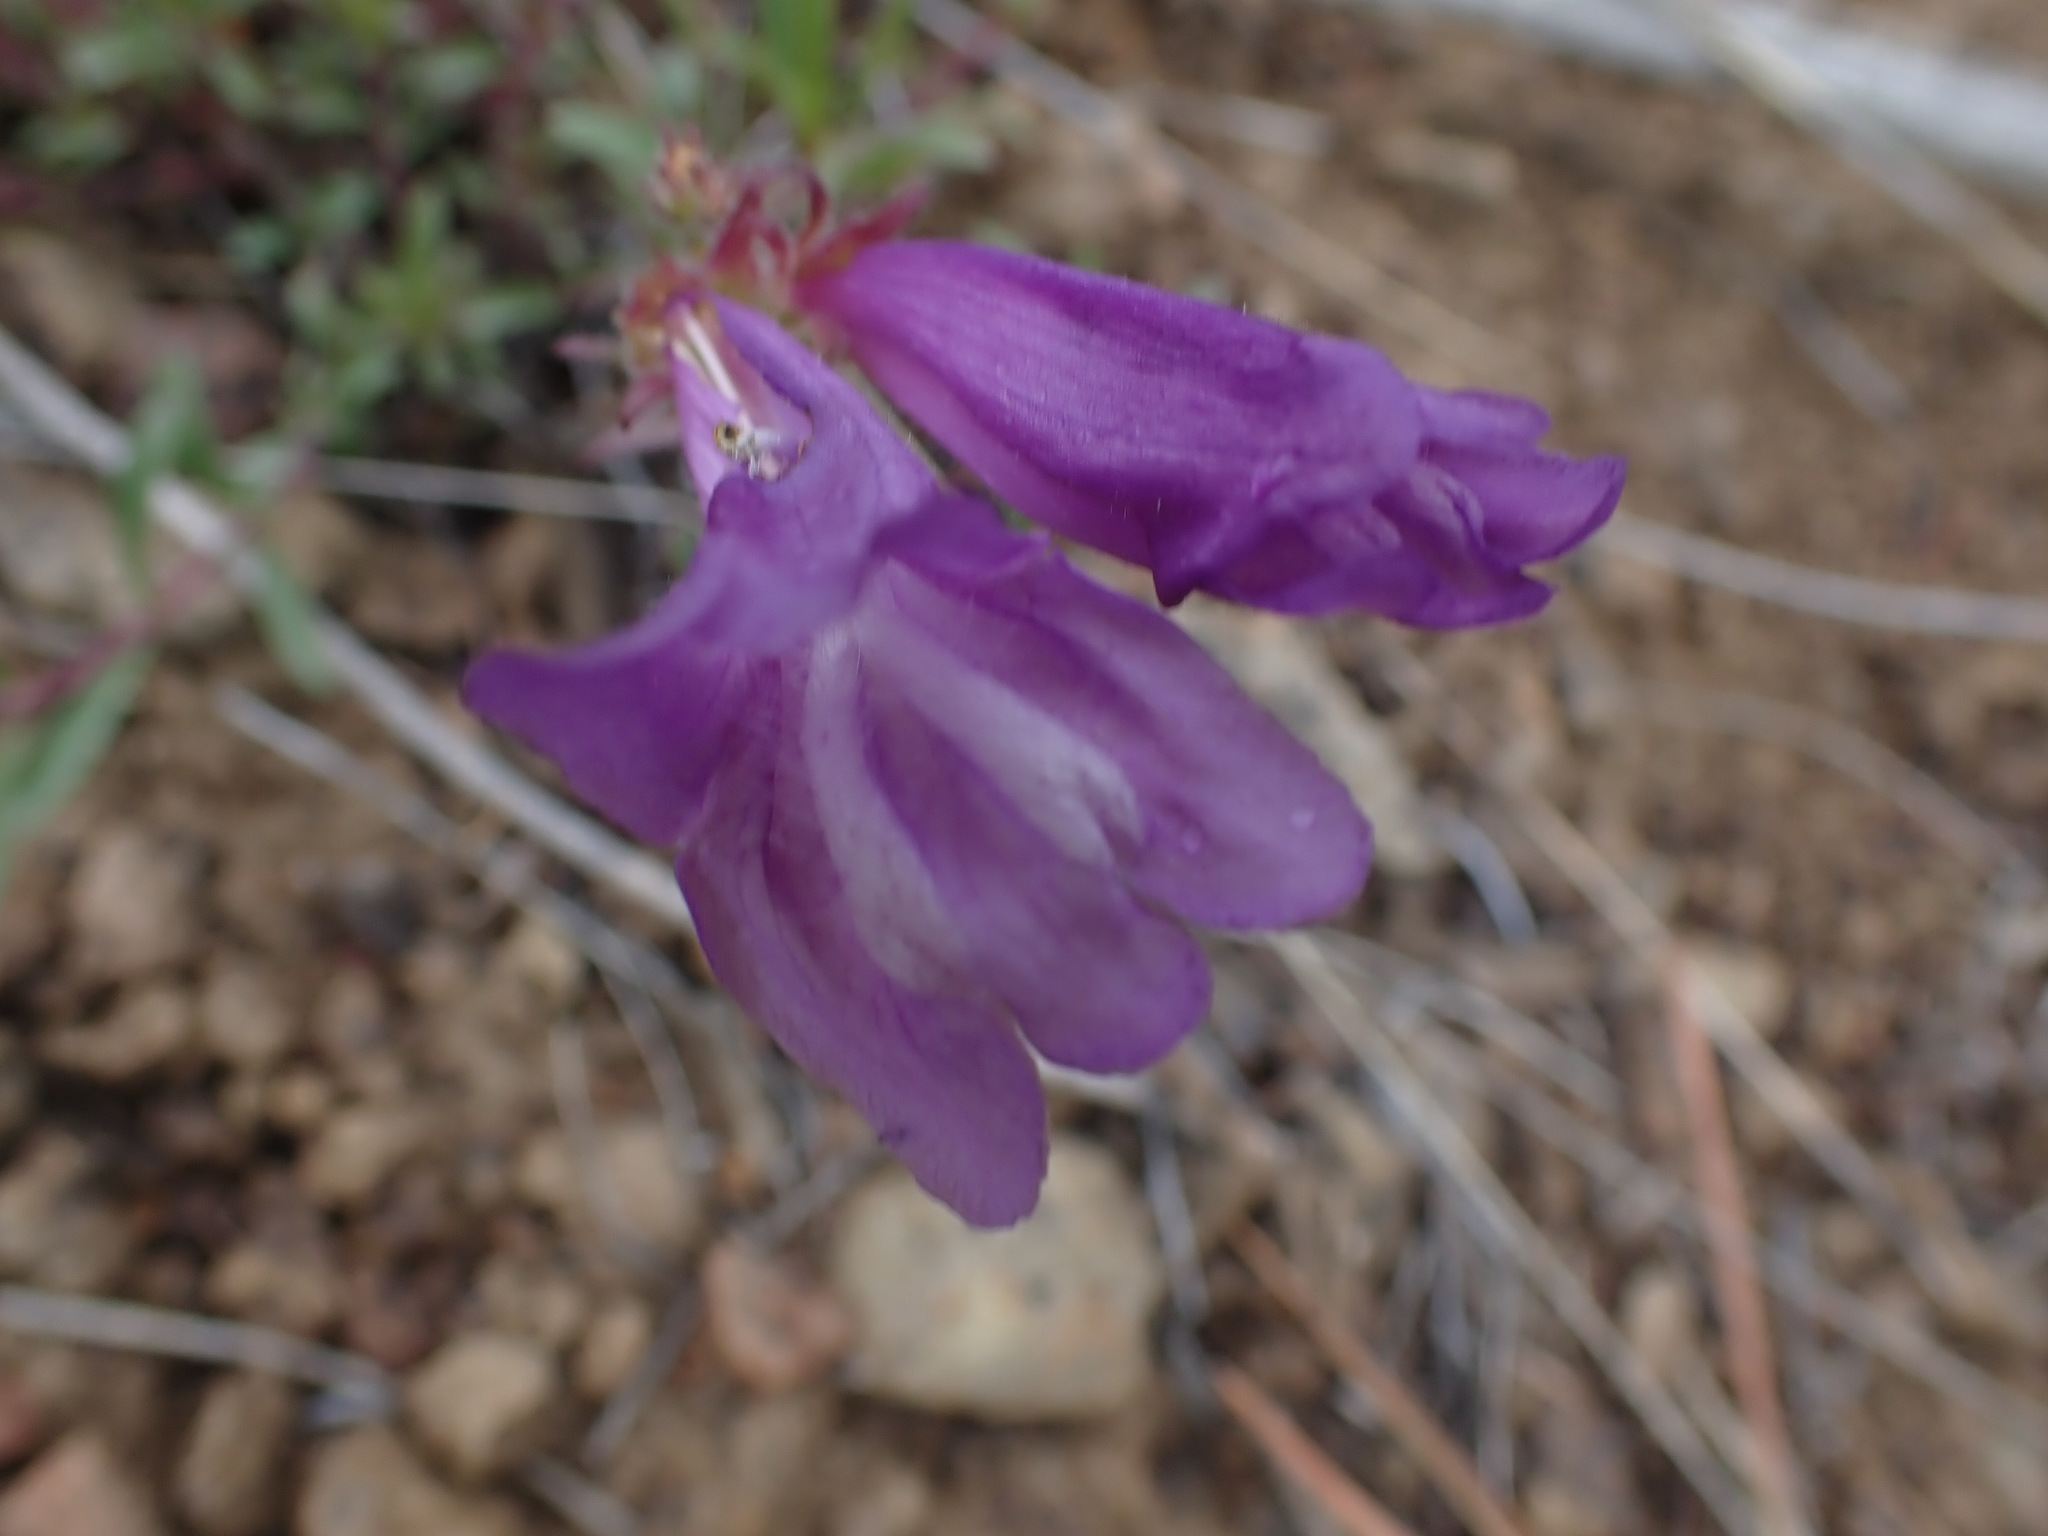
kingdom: Plantae
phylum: Tracheophyta
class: Magnoliopsida
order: Lamiales
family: Plantaginaceae
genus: Penstemon
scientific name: Penstemon fruticosus
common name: Bush penstemon
